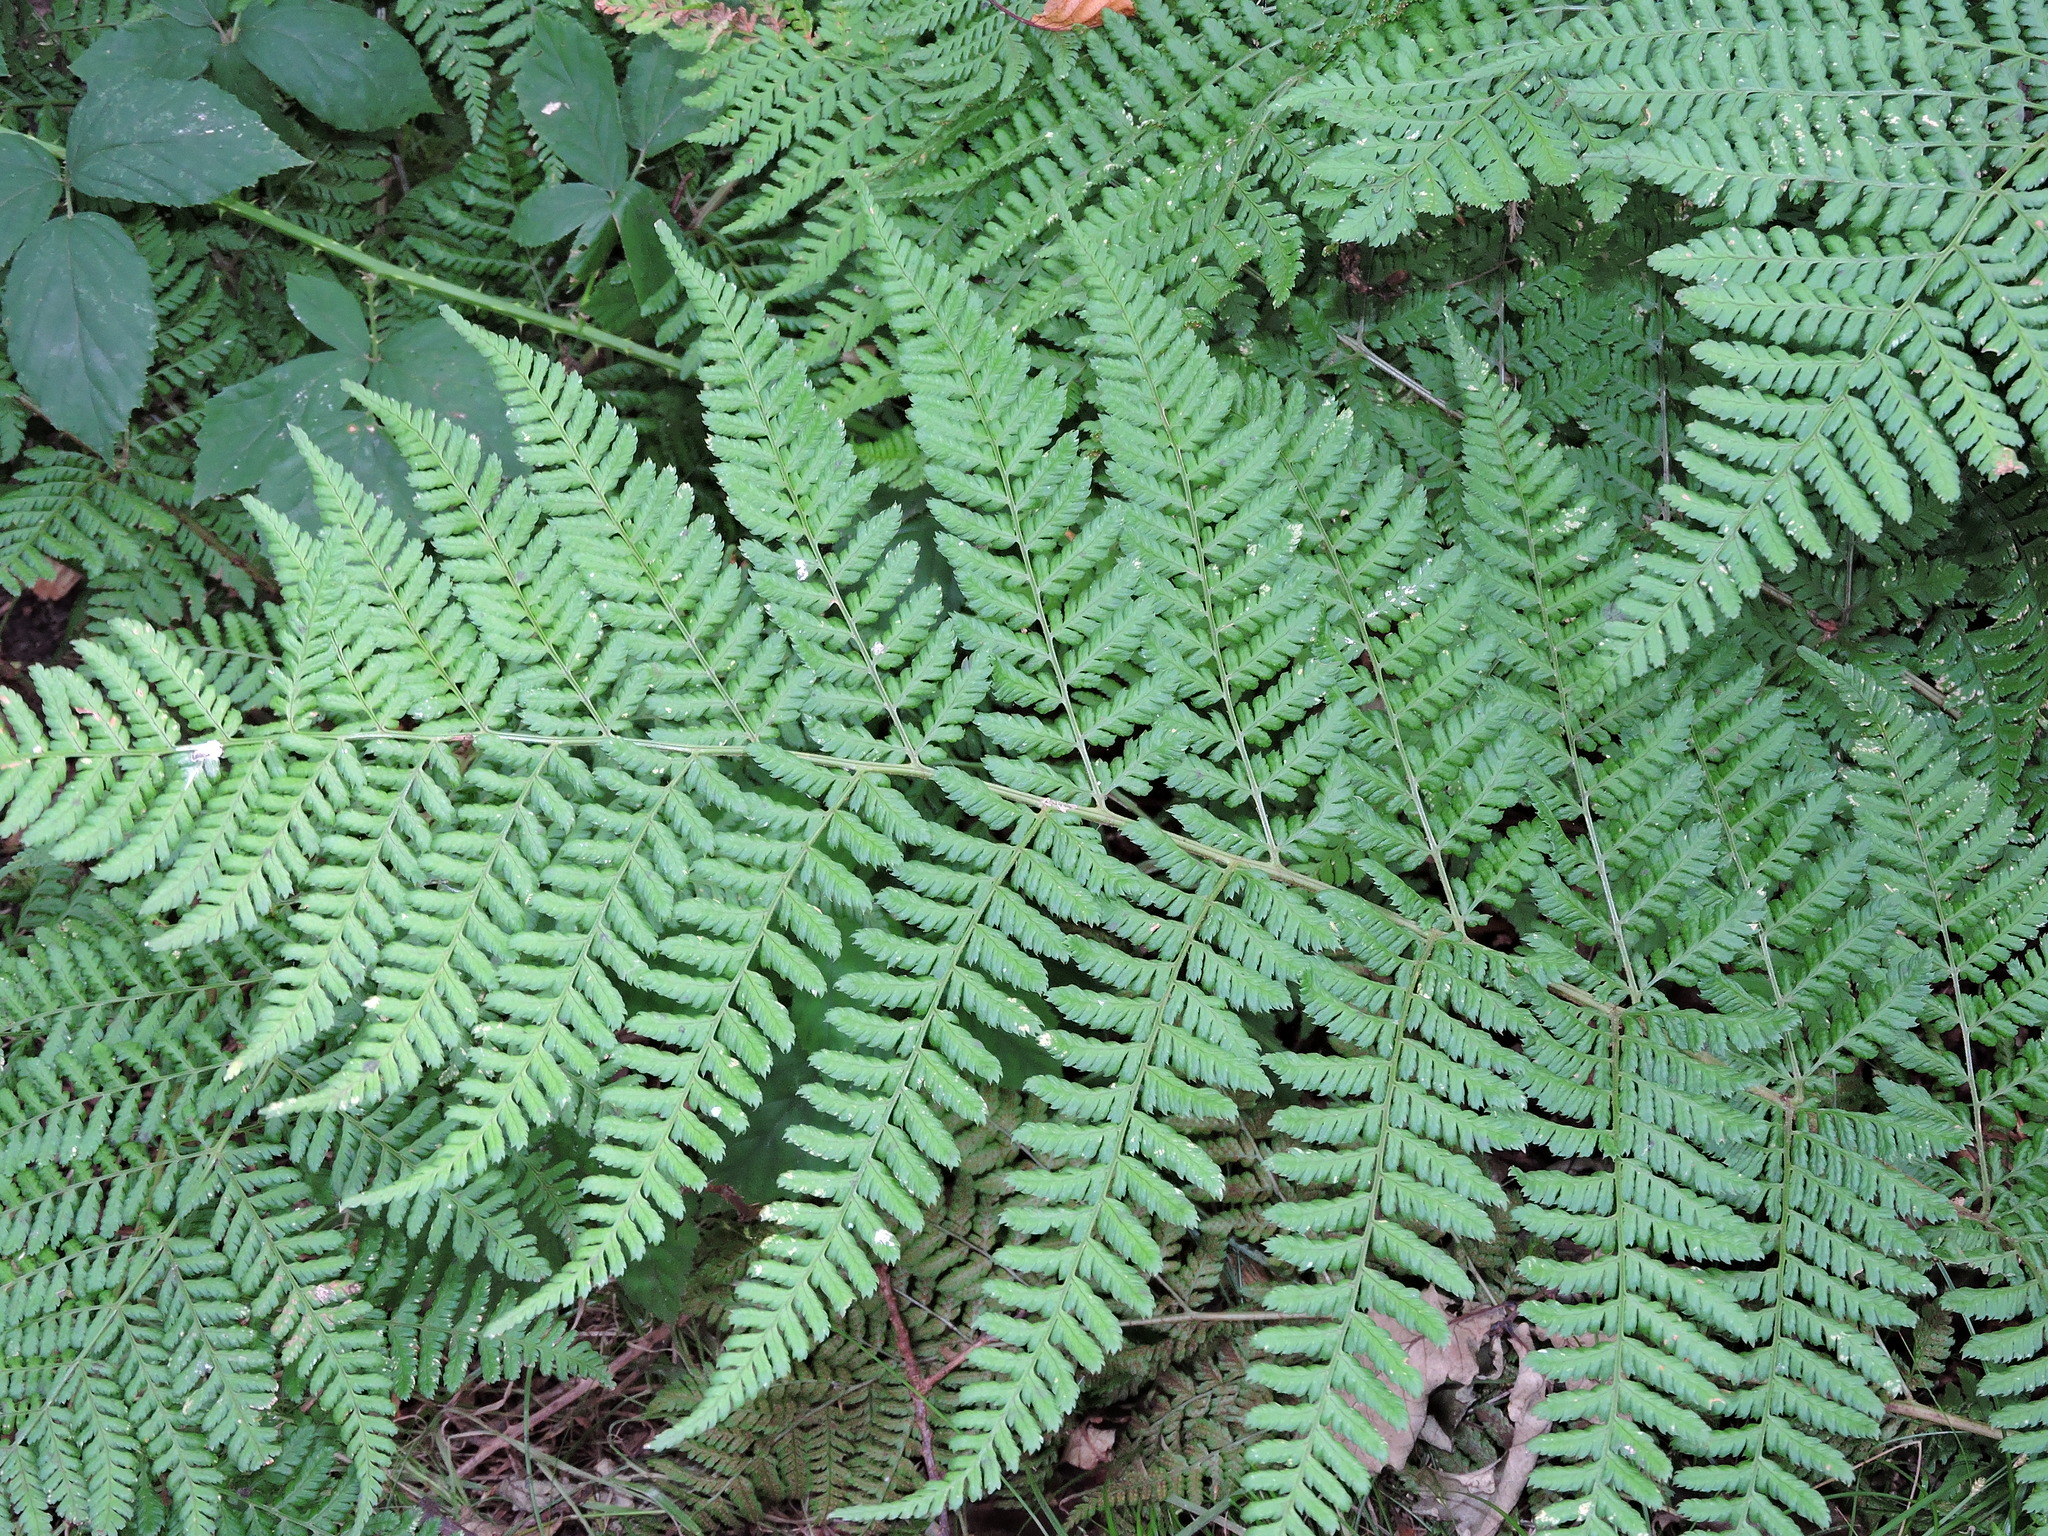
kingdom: Plantae
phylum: Tracheophyta
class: Polypodiopsida
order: Polypodiales
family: Dryopteridaceae
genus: Dryopteris
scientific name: Dryopteris dilatata
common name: Broad buckler-fern
